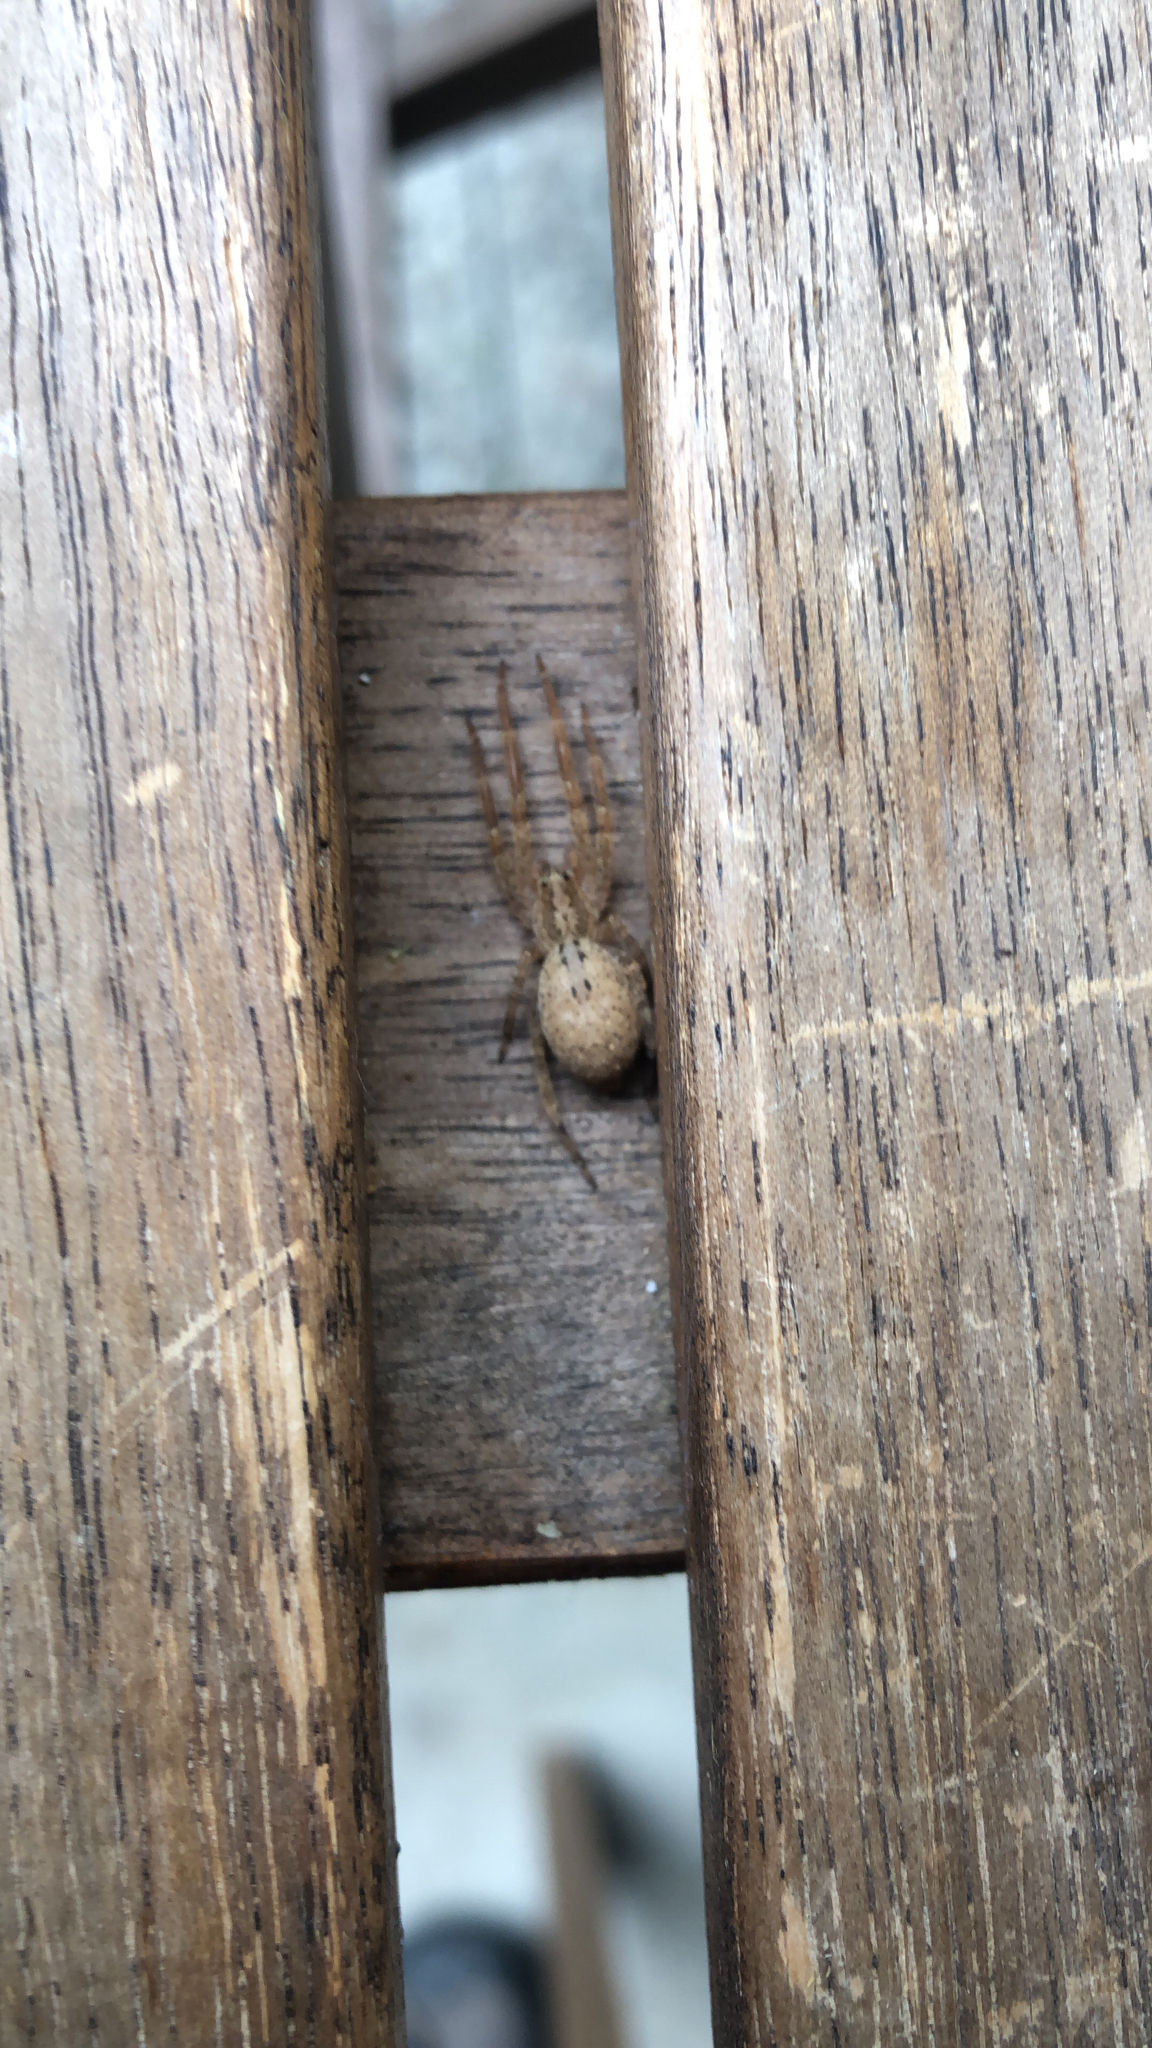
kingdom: Animalia
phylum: Arthropoda
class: Arachnida
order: Araneae
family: Zoropsidae
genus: Zoropsis
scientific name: Zoropsis spinimana
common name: Zoropsid spider
